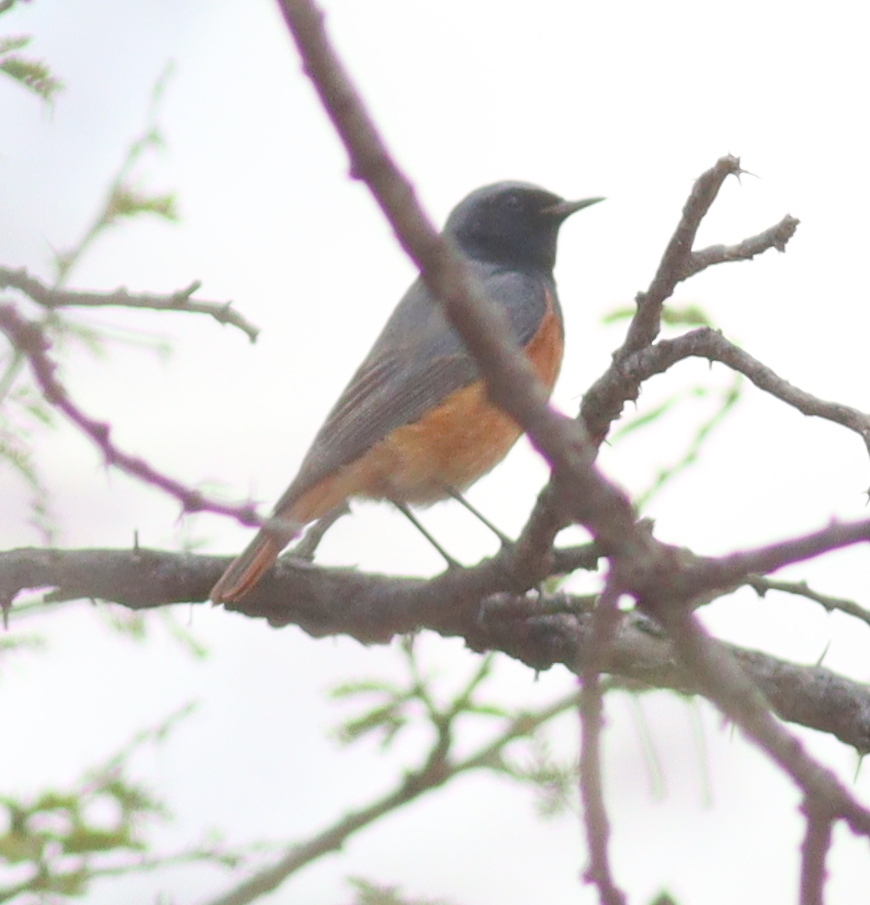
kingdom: Animalia
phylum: Chordata
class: Aves
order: Passeriformes
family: Muscicapidae
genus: Phoenicurus
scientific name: Phoenicurus ochruros
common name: Black redstart
